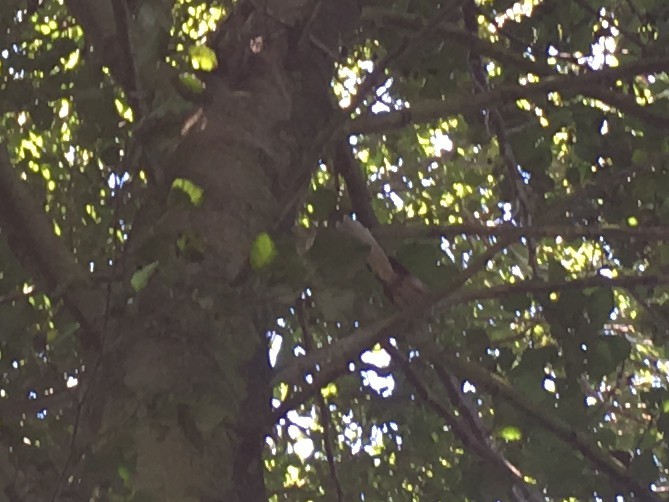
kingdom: Animalia
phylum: Chordata
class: Aves
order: Passeriformes
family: Rhipiduridae
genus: Rhipidura
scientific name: Rhipidura fuliginosa
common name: New zealand fantail
